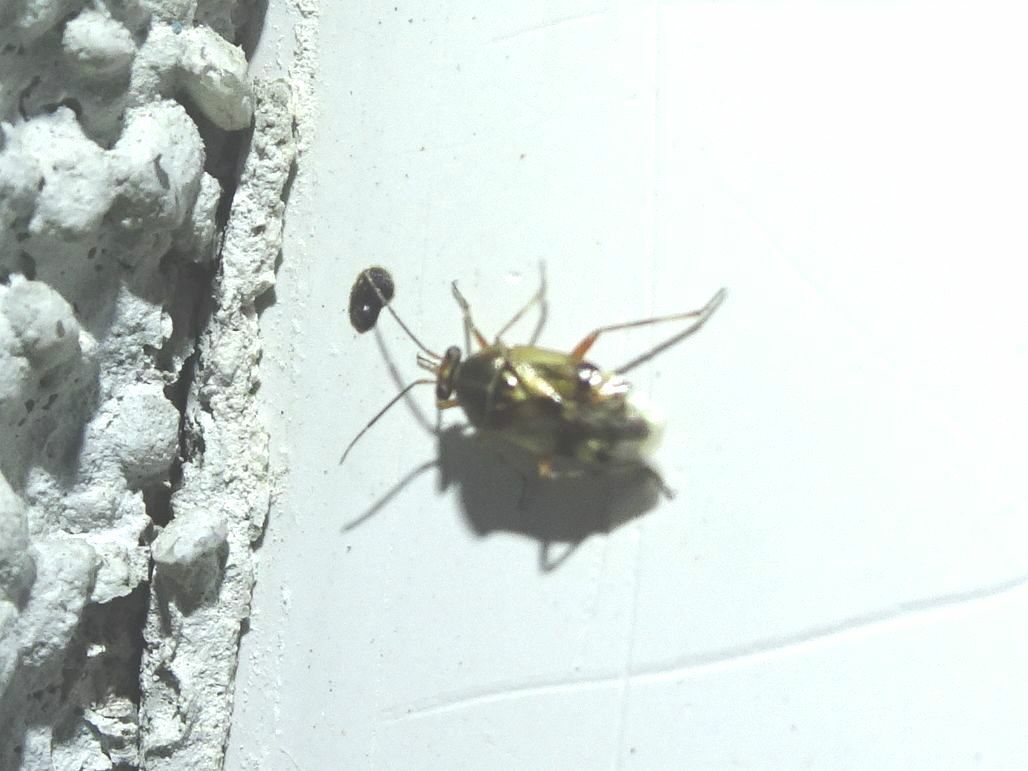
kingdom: Animalia
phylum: Arthropoda
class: Insecta
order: Hemiptera
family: Miridae
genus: Deraeocoris
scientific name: Deraeocoris serenus
